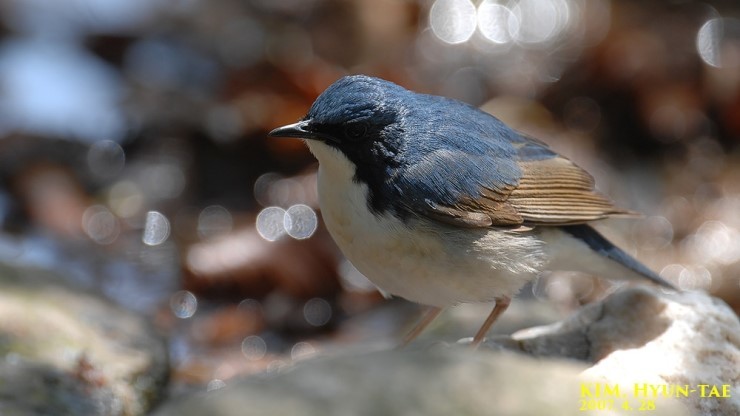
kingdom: Animalia
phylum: Chordata
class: Aves
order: Passeriformes
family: Muscicapidae
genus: Luscinia
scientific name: Luscinia cyane
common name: Siberian blue robin
